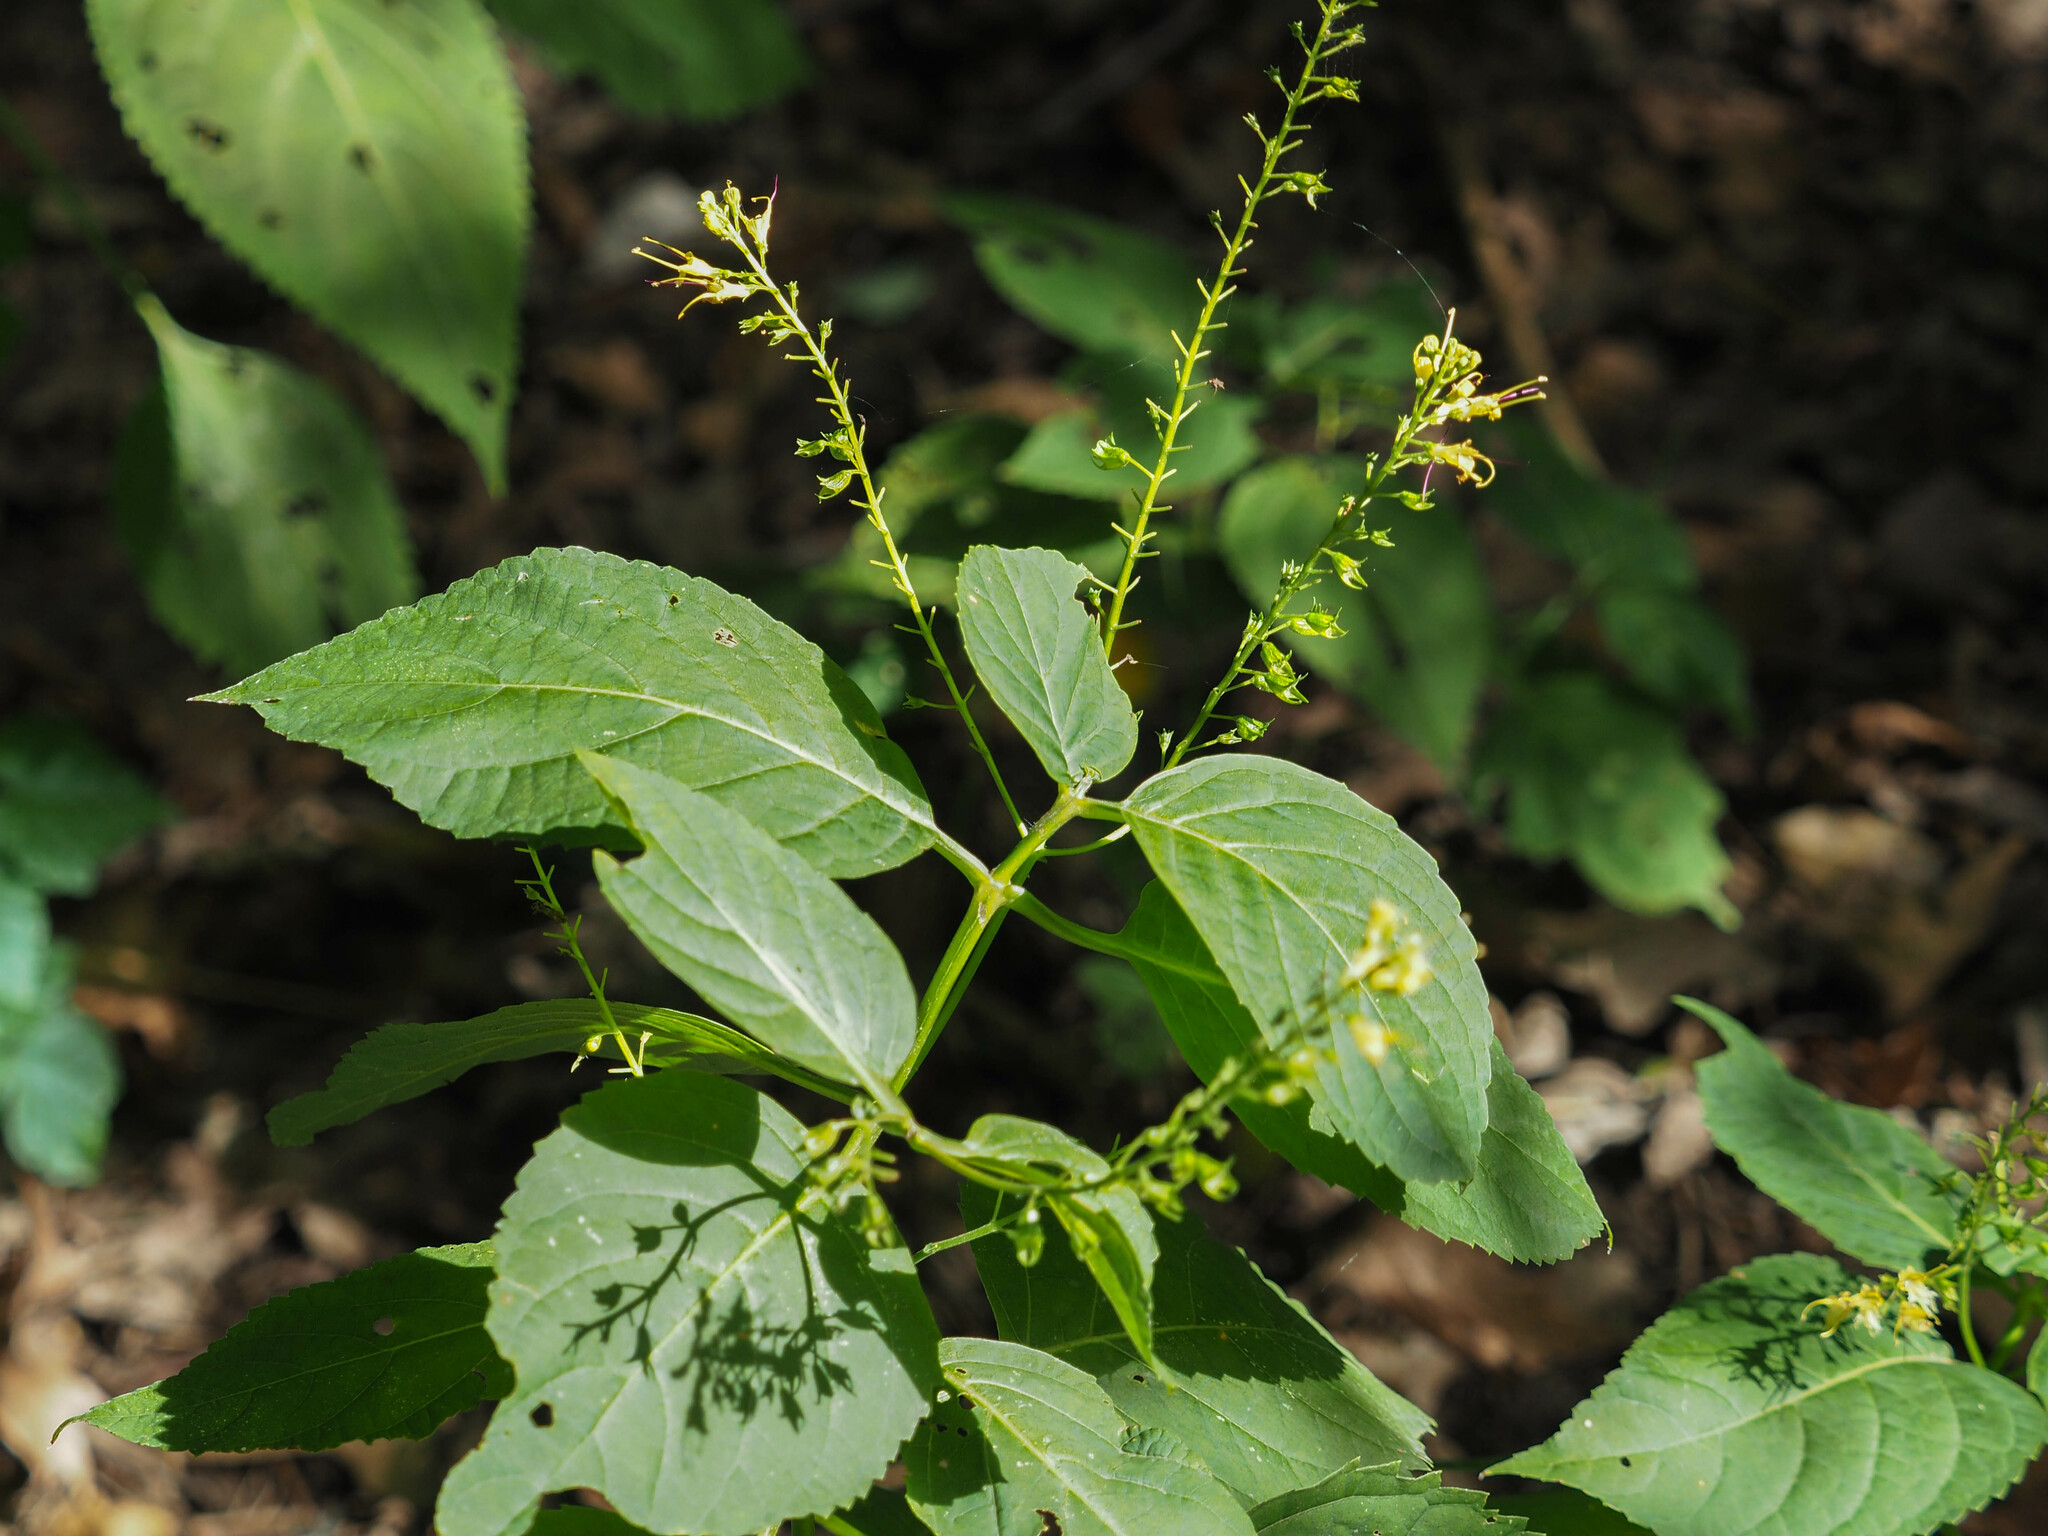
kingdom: Plantae
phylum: Tracheophyta
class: Magnoliopsida
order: Lamiales
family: Lamiaceae
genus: Collinsonia
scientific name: Collinsonia canadensis
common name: Northern horsebalm
